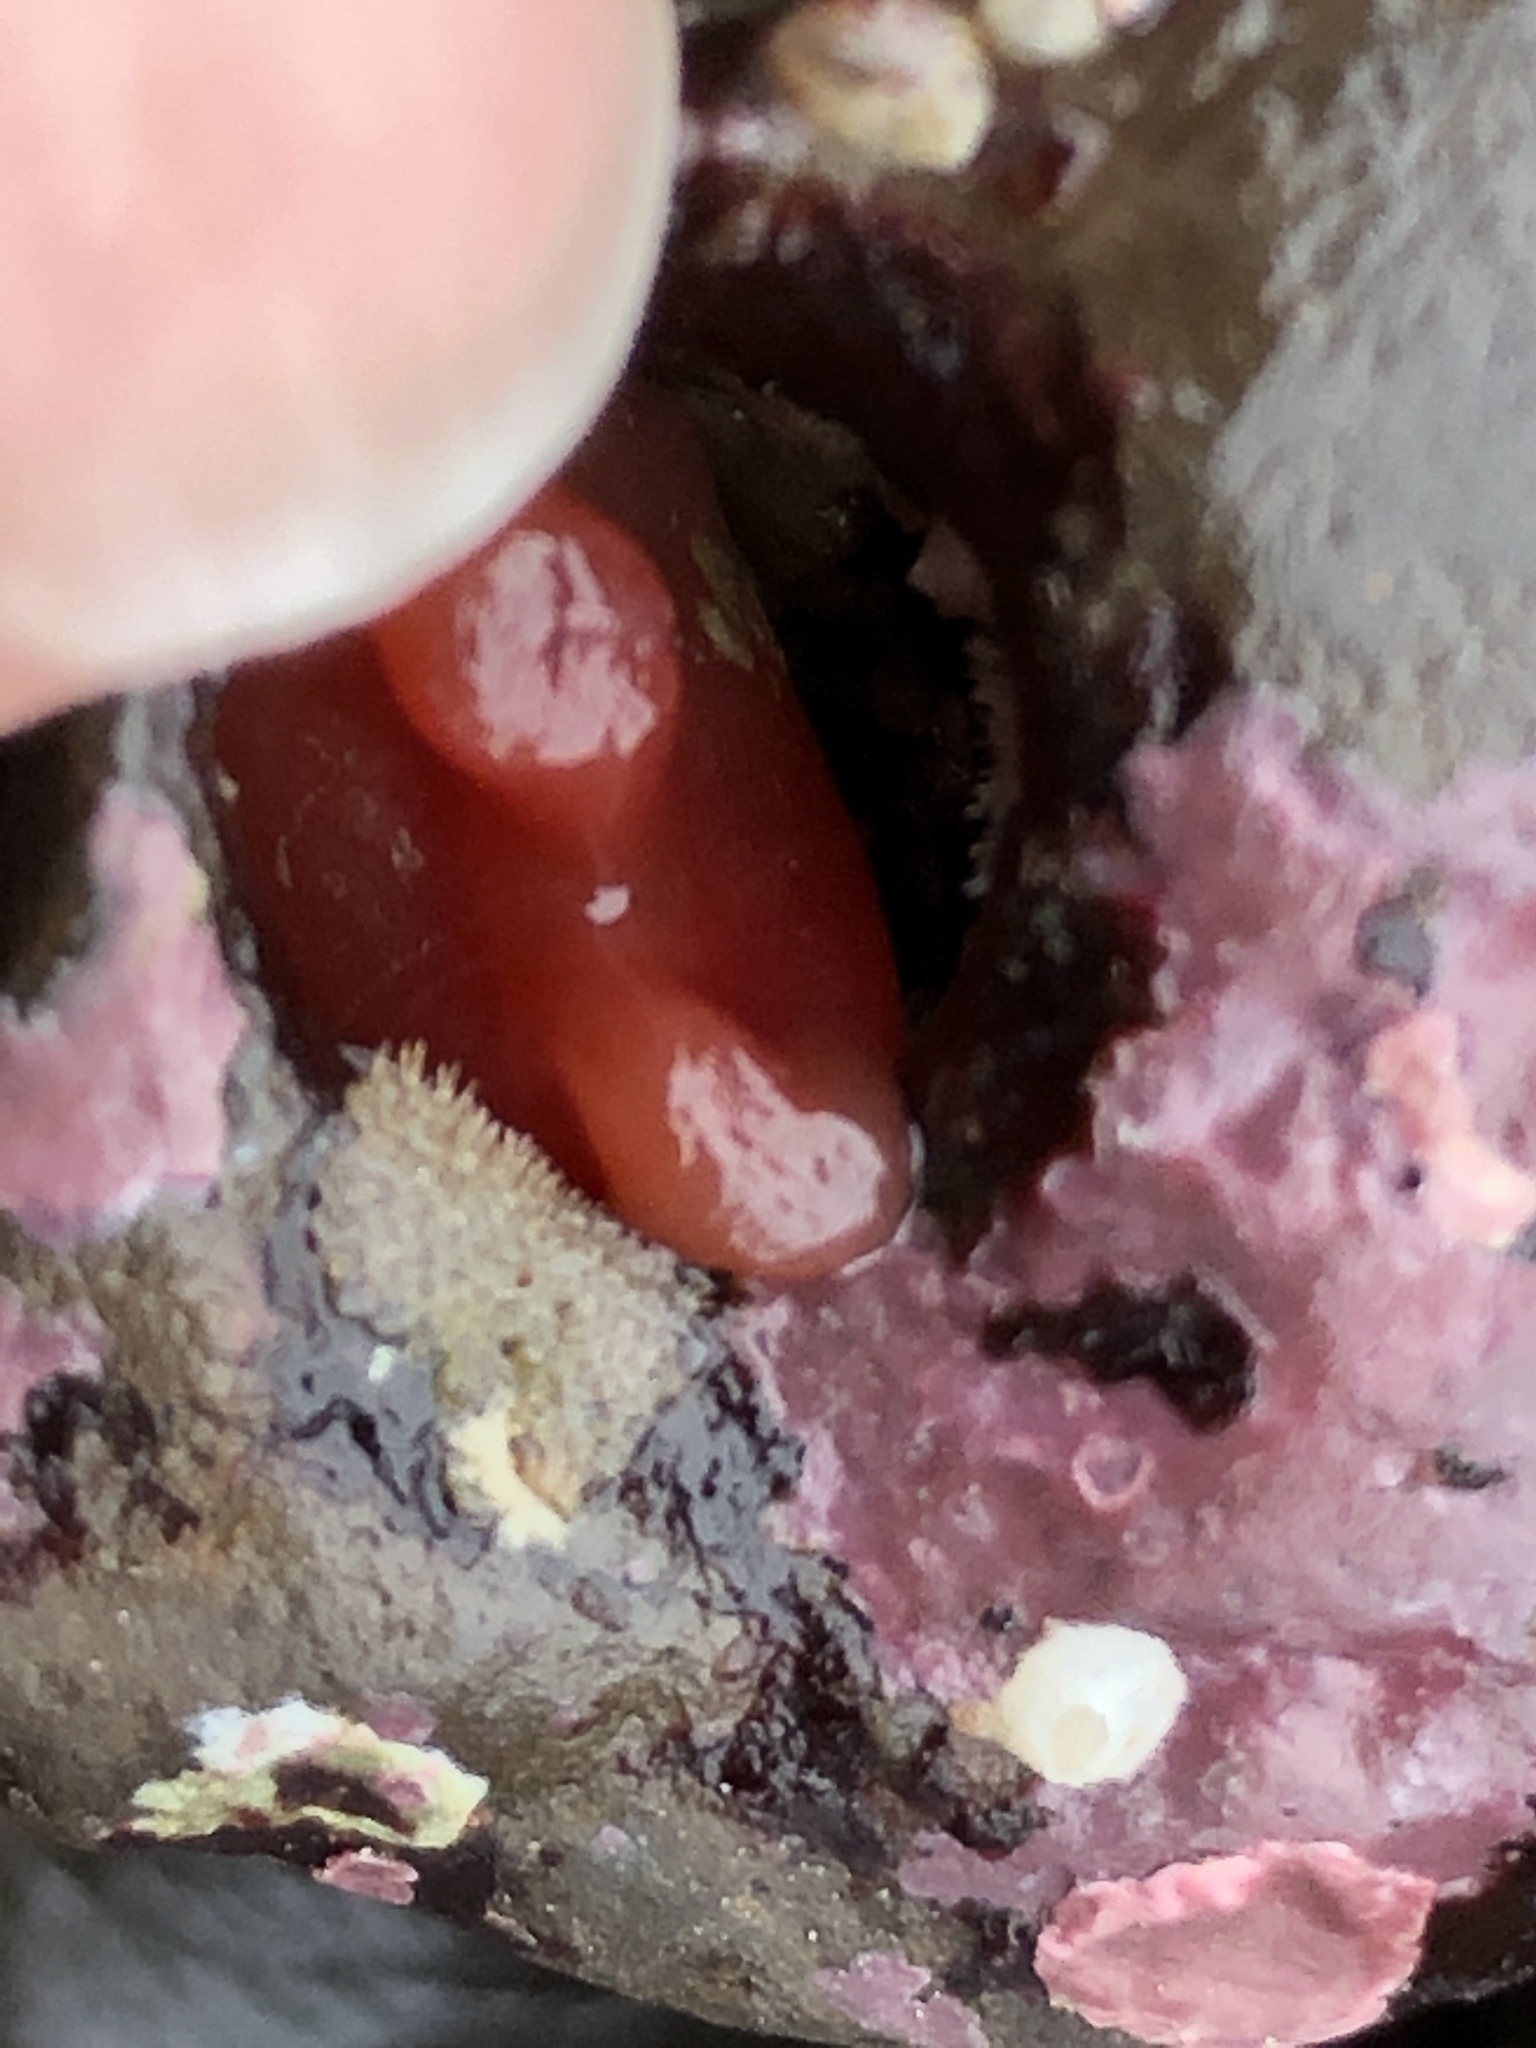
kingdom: Animalia
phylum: Mollusca
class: Bivalvia
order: Adapedonta
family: Hiatellidae
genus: Hiatella
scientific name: Hiatella arctica
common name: Arctic hiatella
